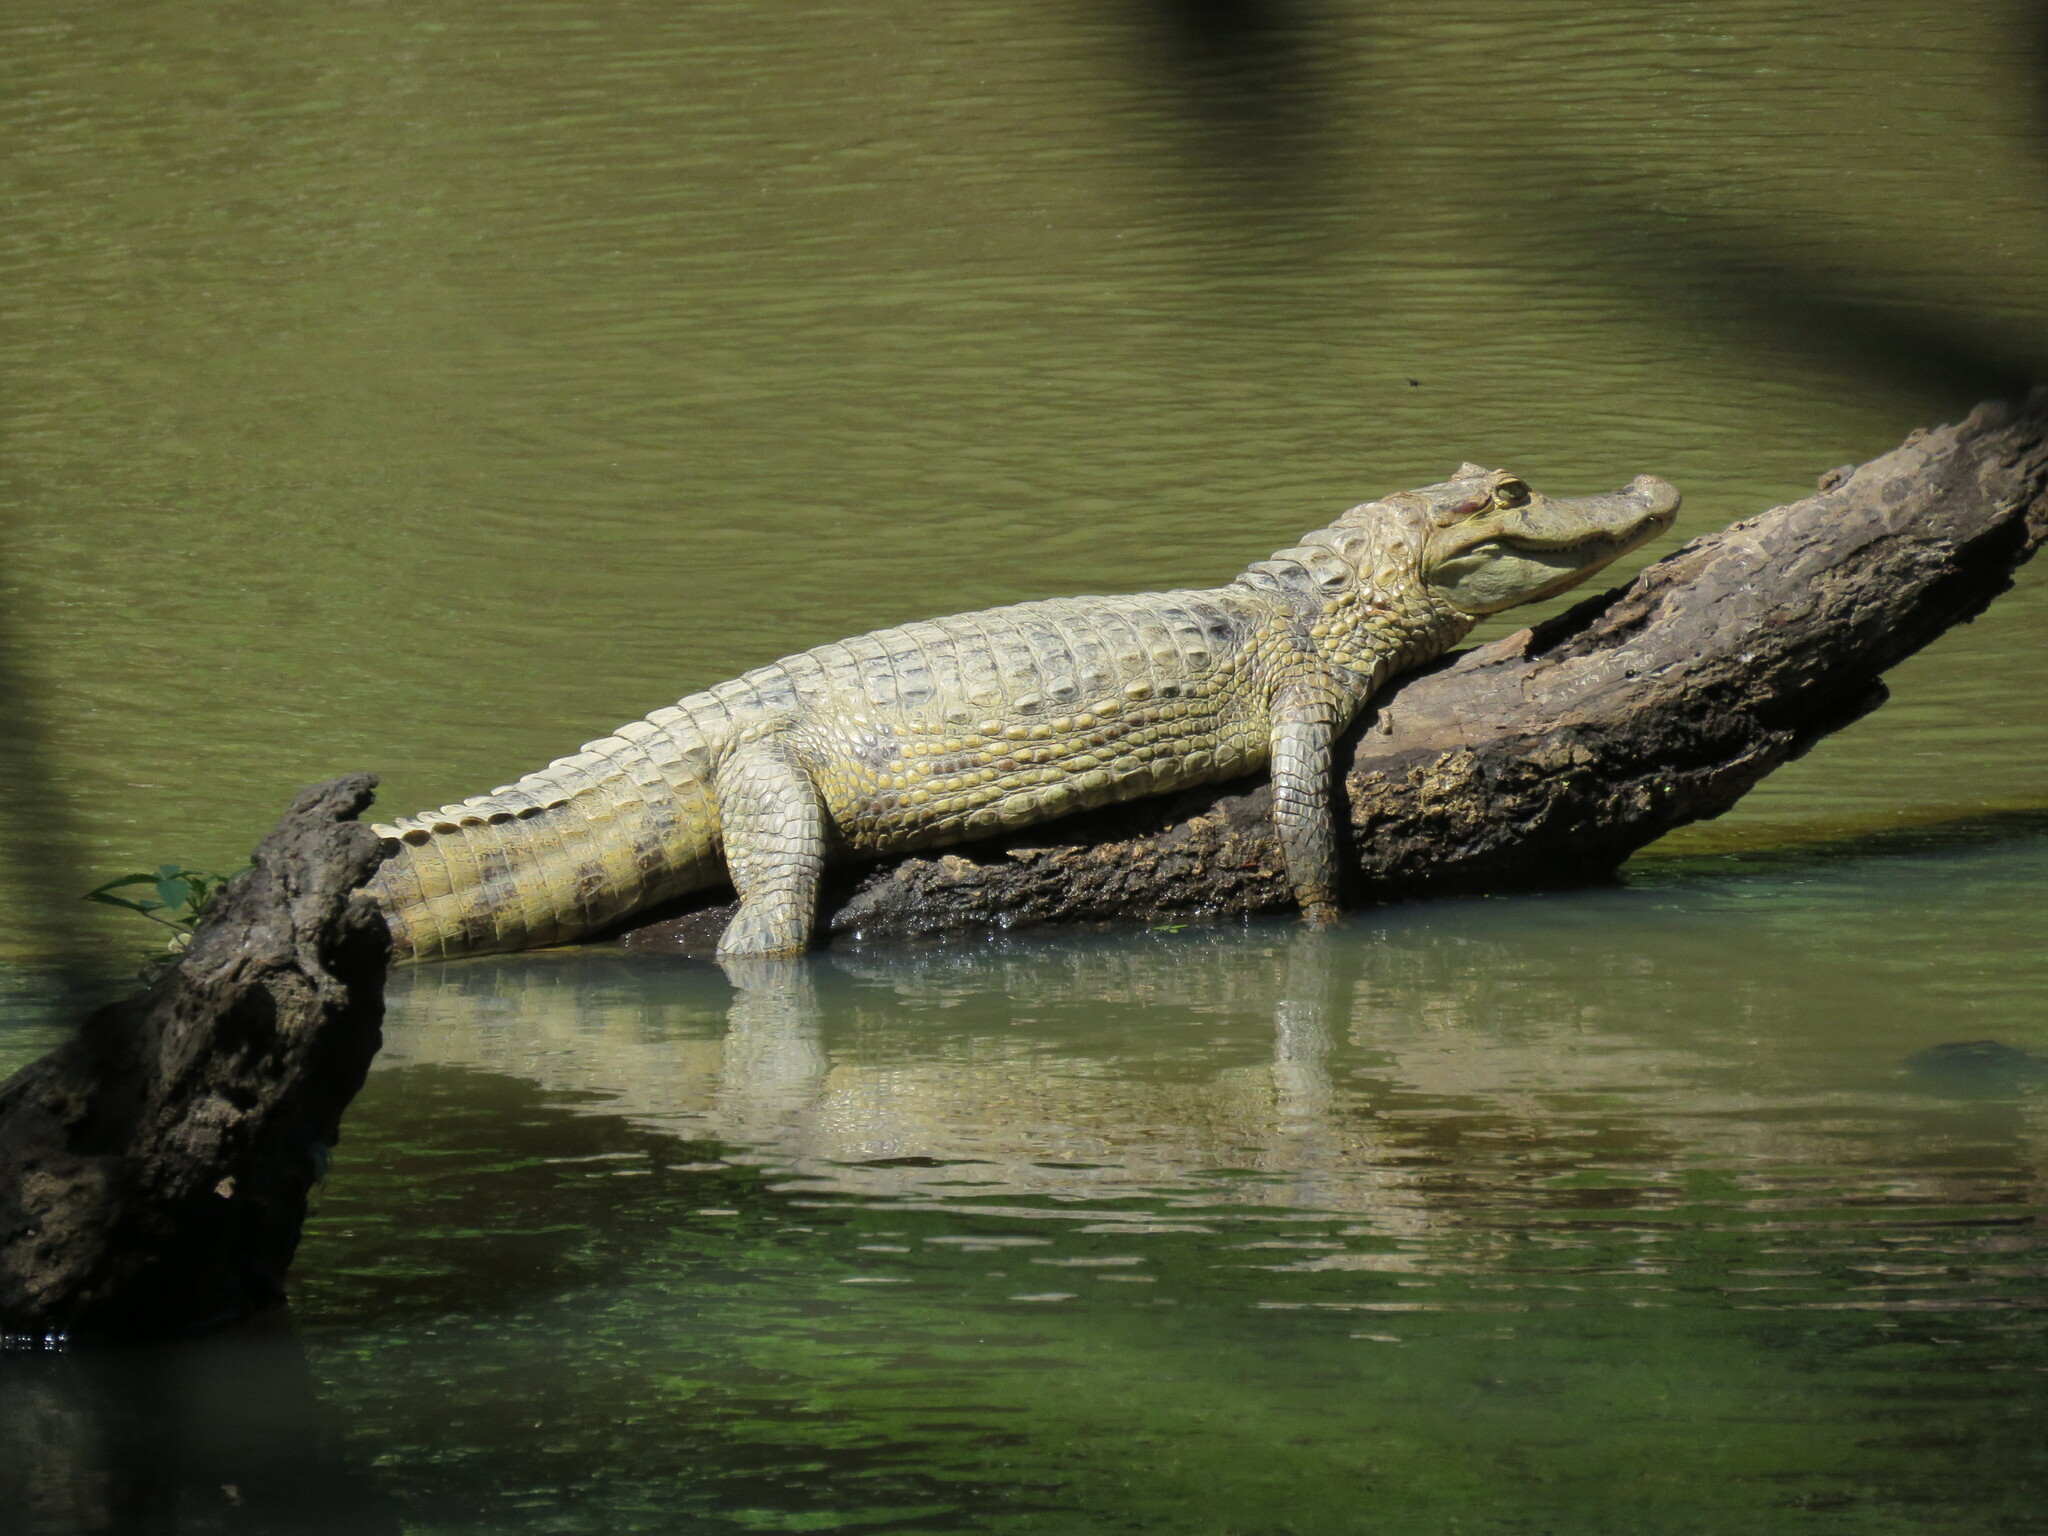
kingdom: Animalia
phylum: Chordata
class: Crocodylia
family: Alligatoridae
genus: Caiman
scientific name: Caiman crocodilus
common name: Common caiman
